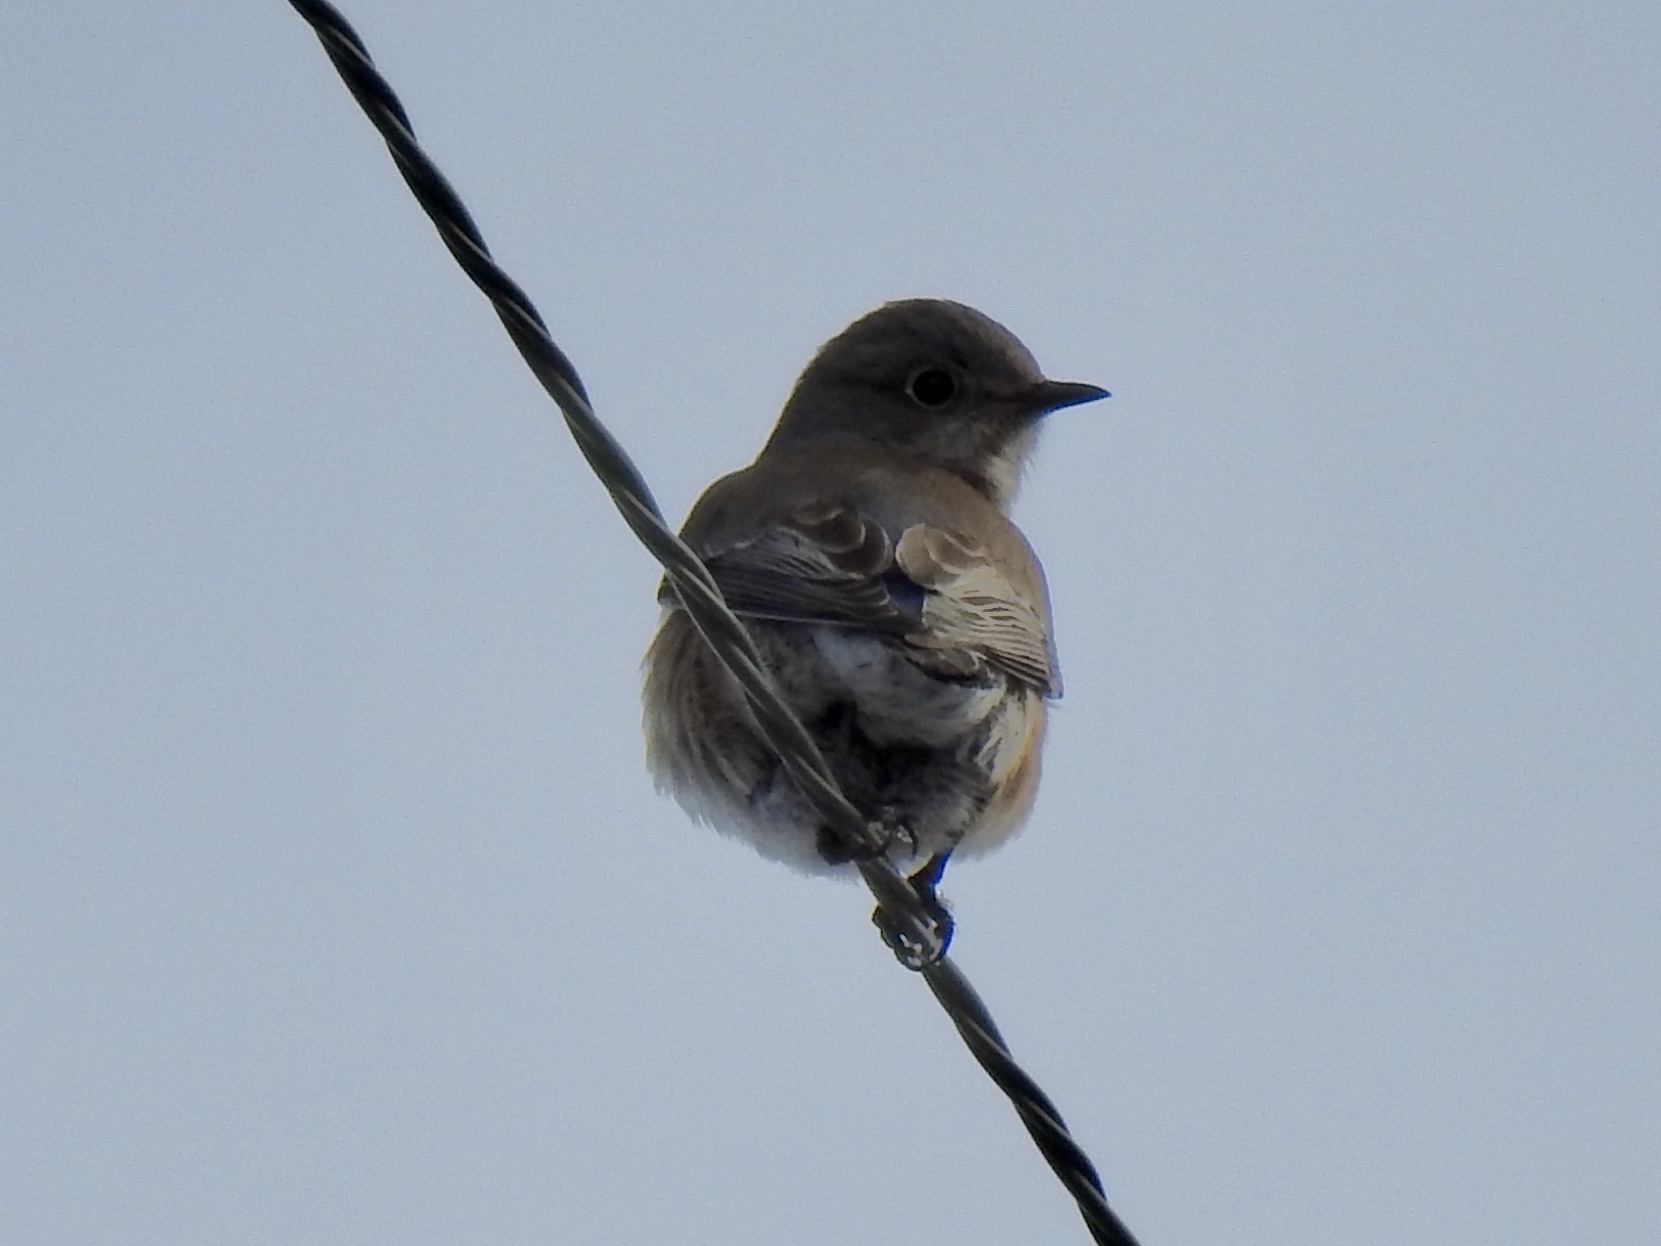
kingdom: Animalia
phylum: Chordata
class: Aves
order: Passeriformes
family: Turdidae
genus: Sialia
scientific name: Sialia mexicana
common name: Western bluebird
